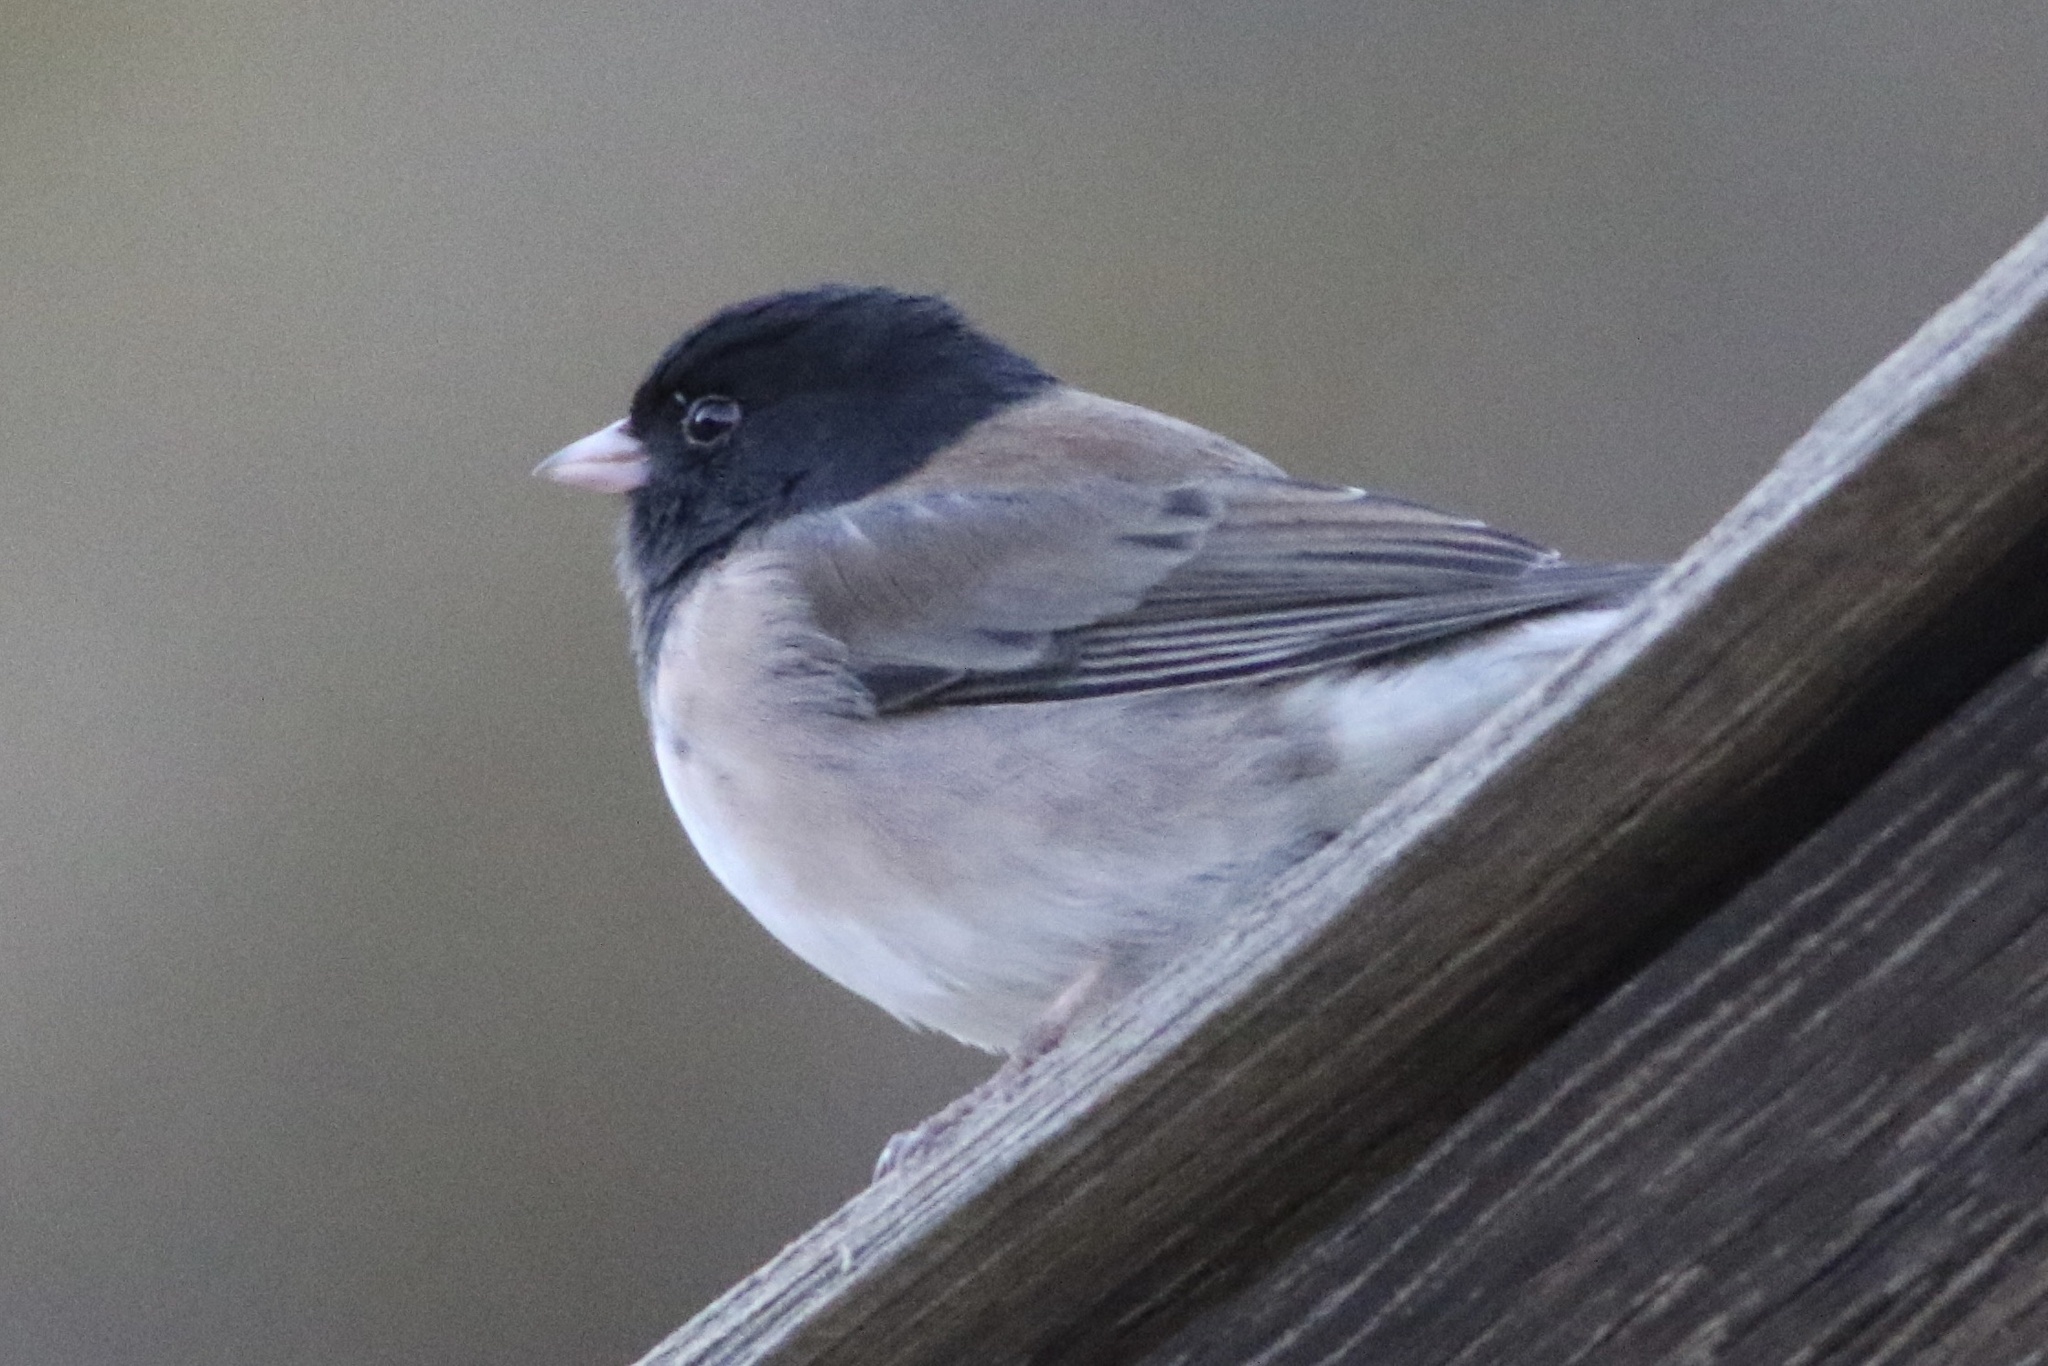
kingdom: Animalia
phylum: Chordata
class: Aves
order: Passeriformes
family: Passerellidae
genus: Junco
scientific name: Junco hyemalis
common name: Dark-eyed junco
